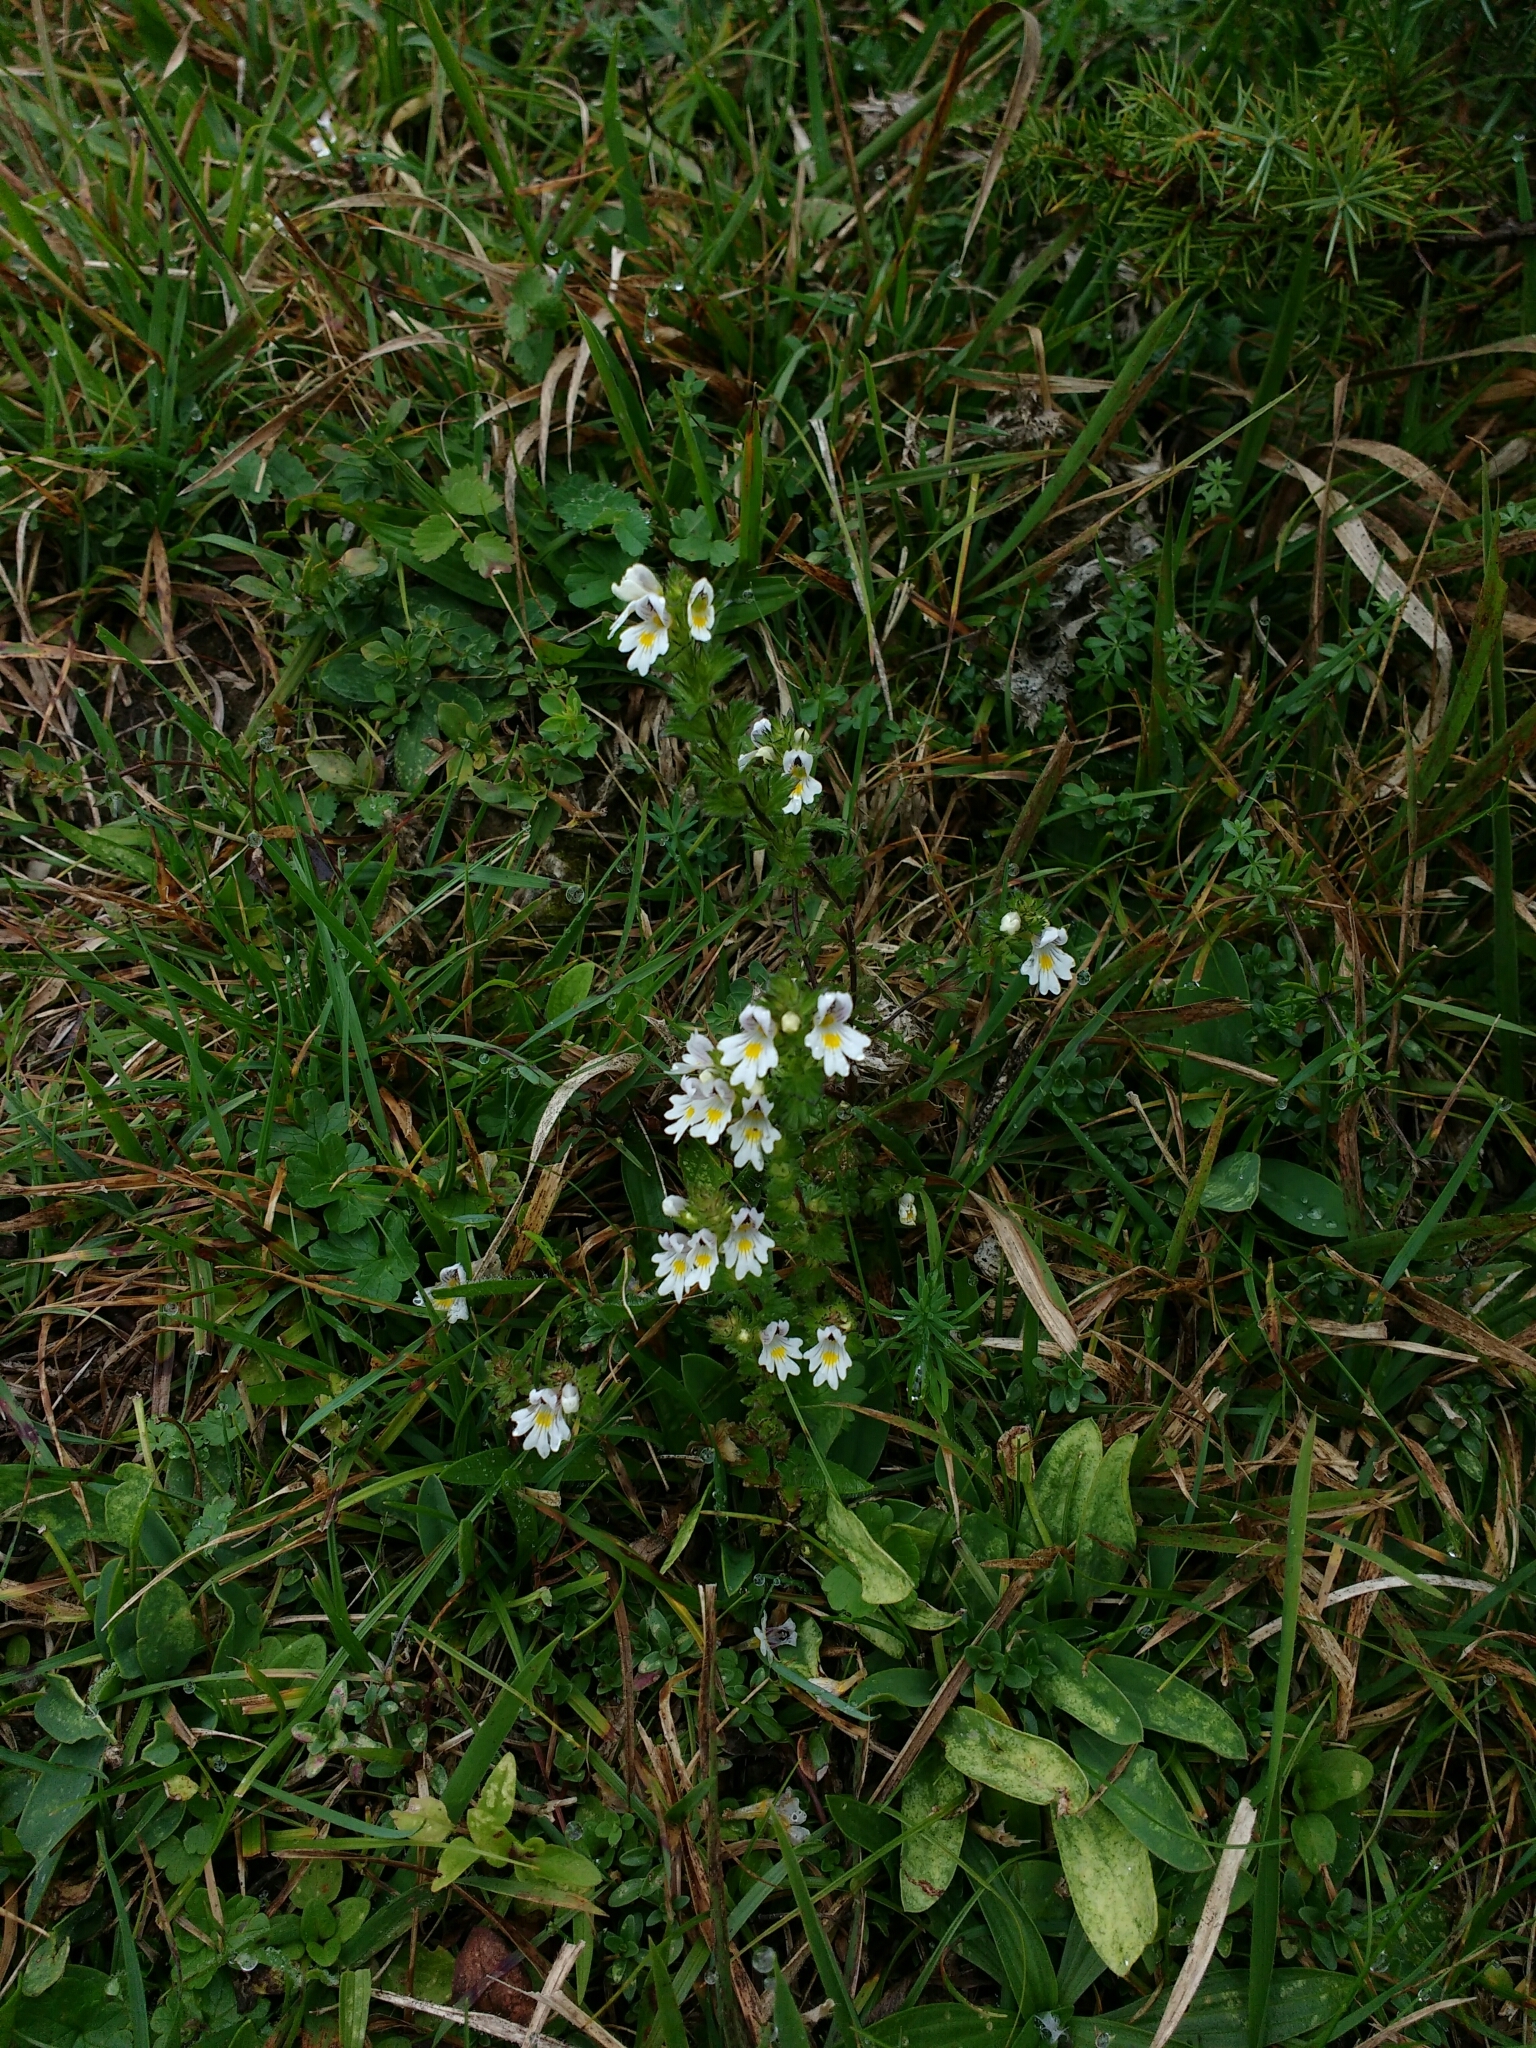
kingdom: Plantae
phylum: Tracheophyta
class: Magnoliopsida
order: Lamiales
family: Orobanchaceae
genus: Euphrasia
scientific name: Euphrasia officinalis
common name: Eyebright
